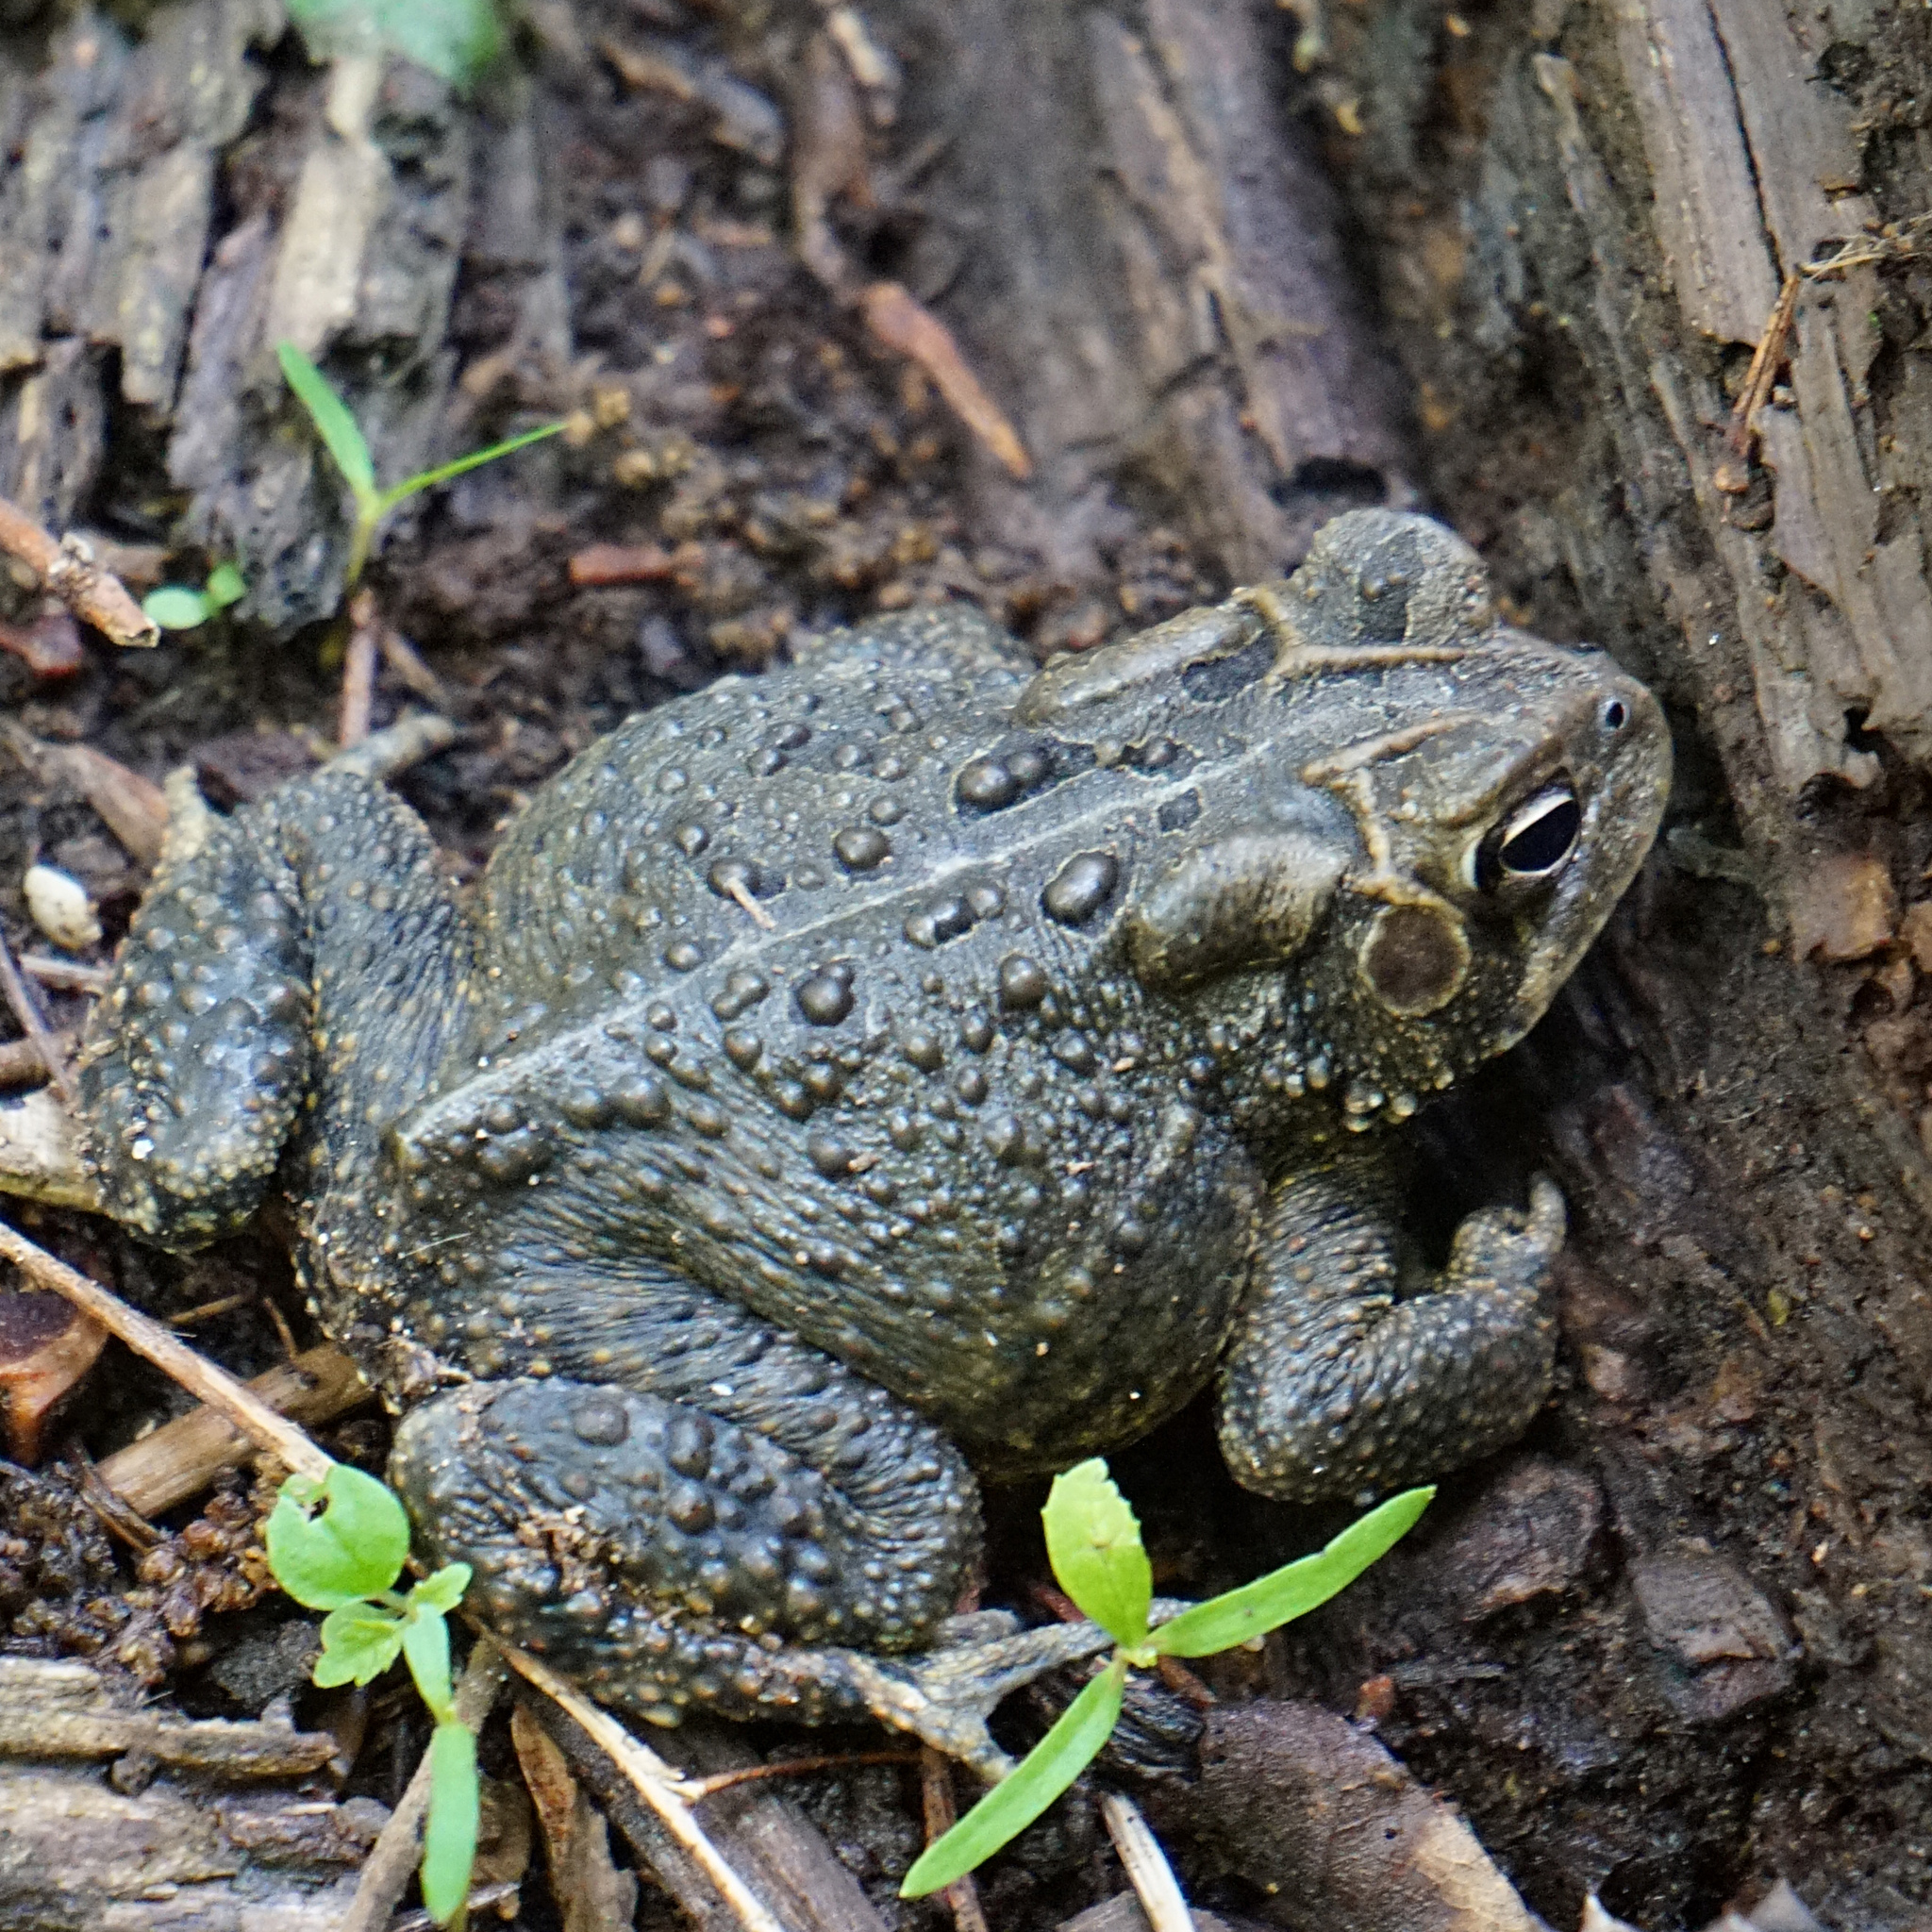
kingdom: Animalia
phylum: Chordata
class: Amphibia
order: Anura
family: Bufonidae
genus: Anaxyrus
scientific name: Anaxyrus americanus
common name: American toad
